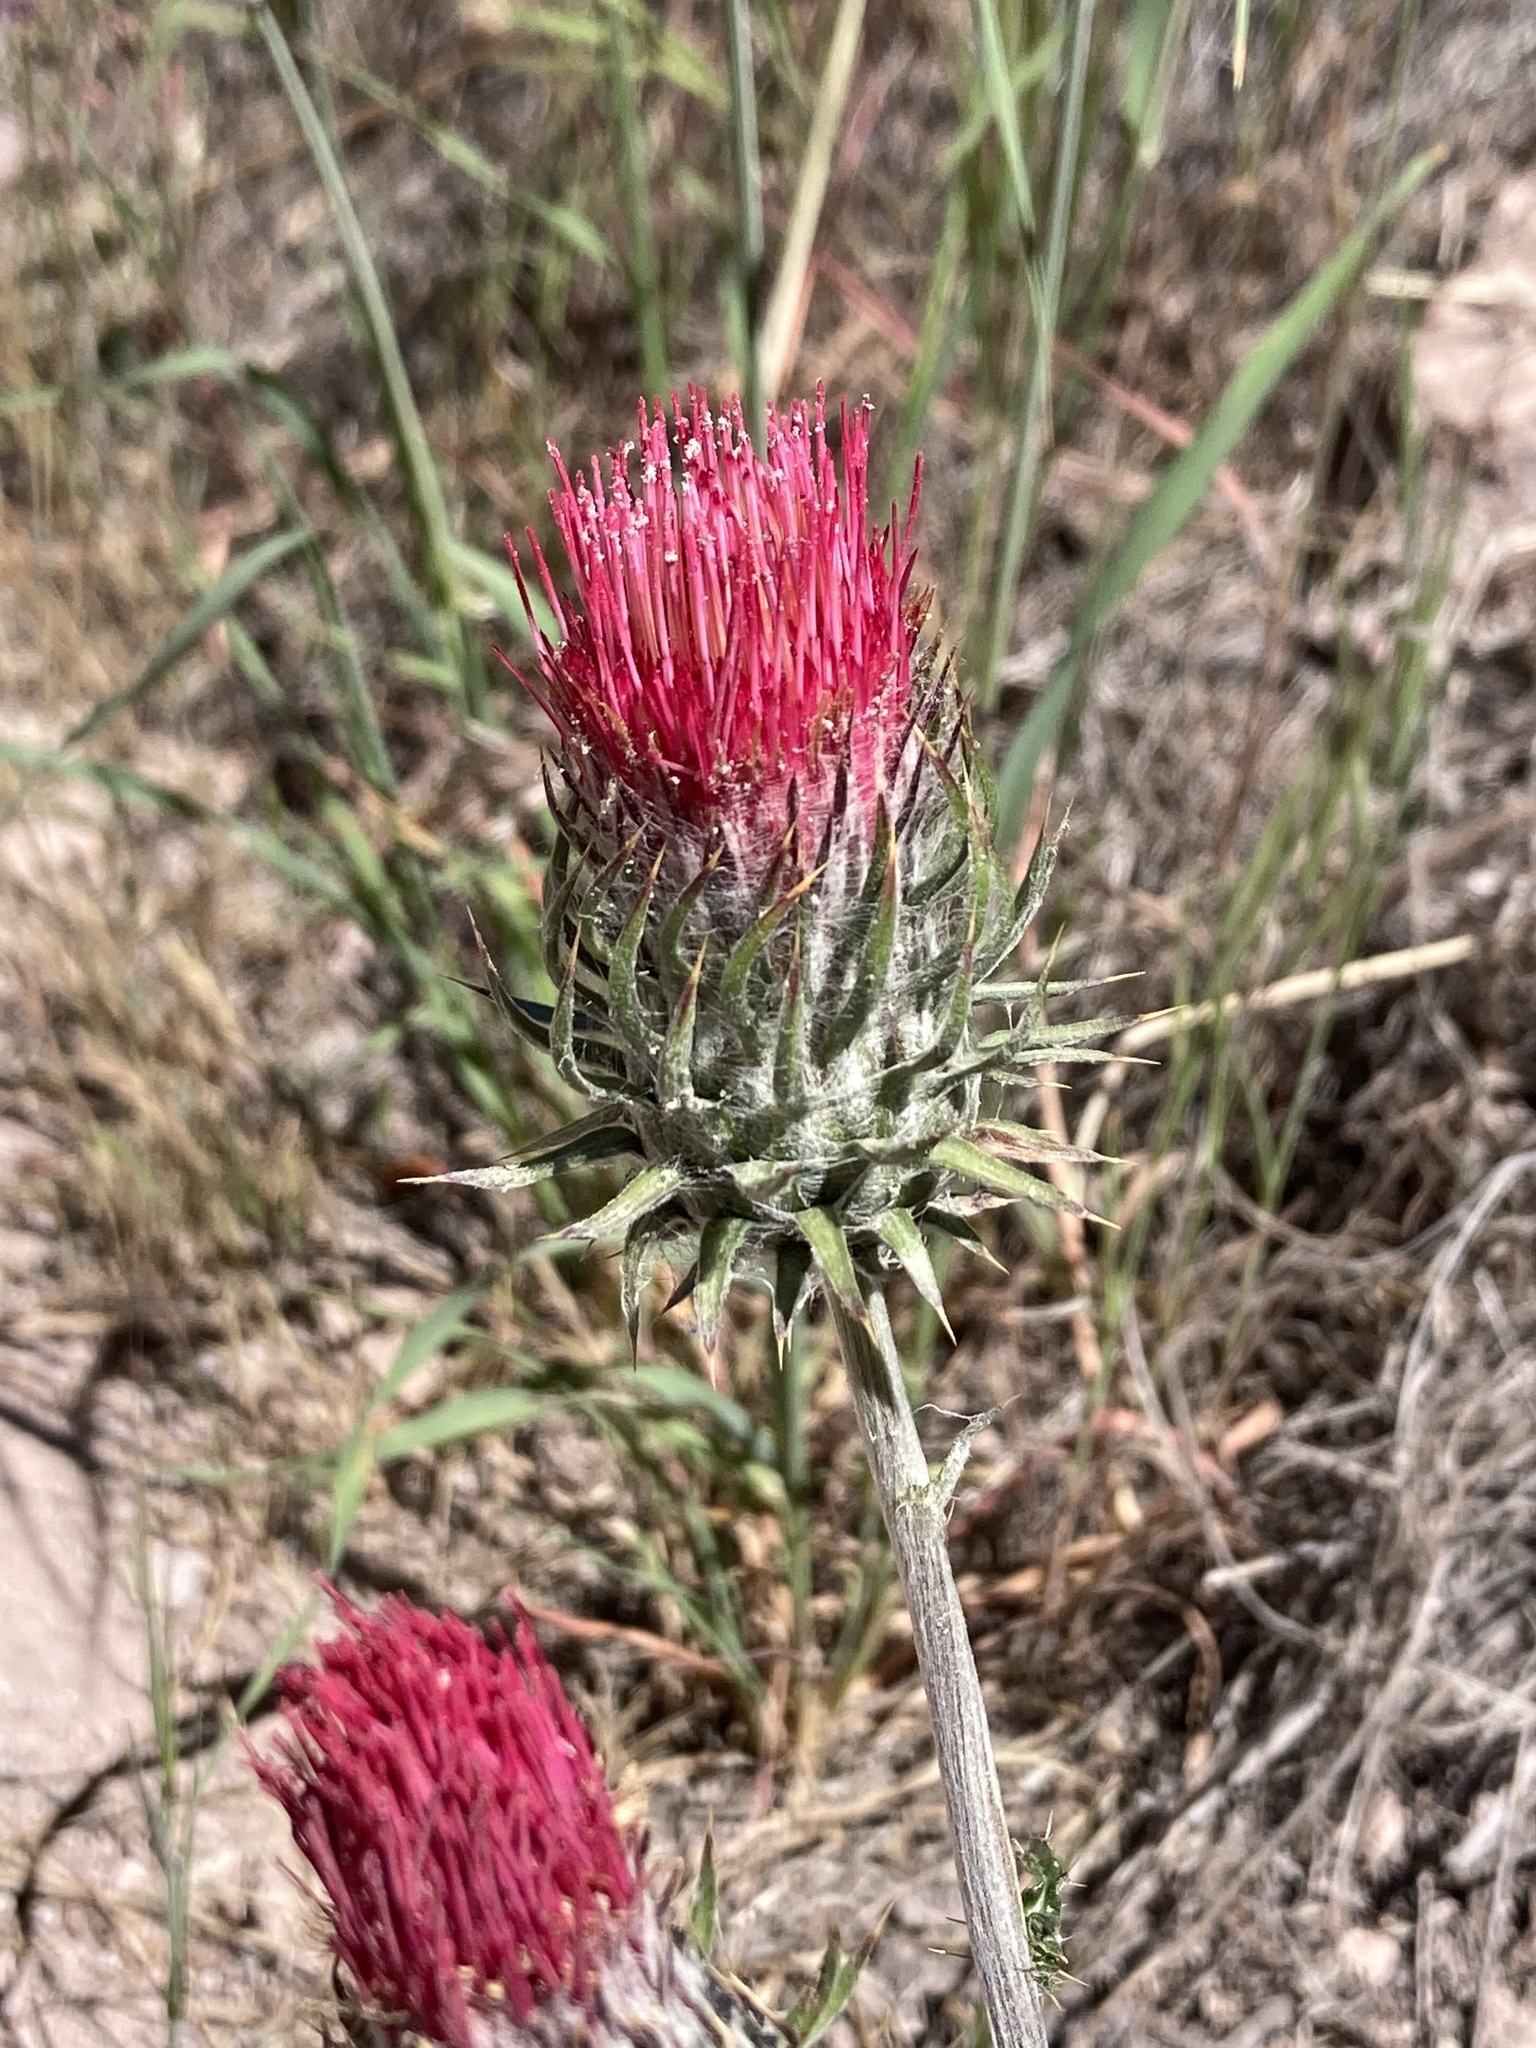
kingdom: Plantae
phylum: Tracheophyta
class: Magnoliopsida
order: Asterales
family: Asteraceae
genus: Cirsium
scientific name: Cirsium occidentale
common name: Western thistle
